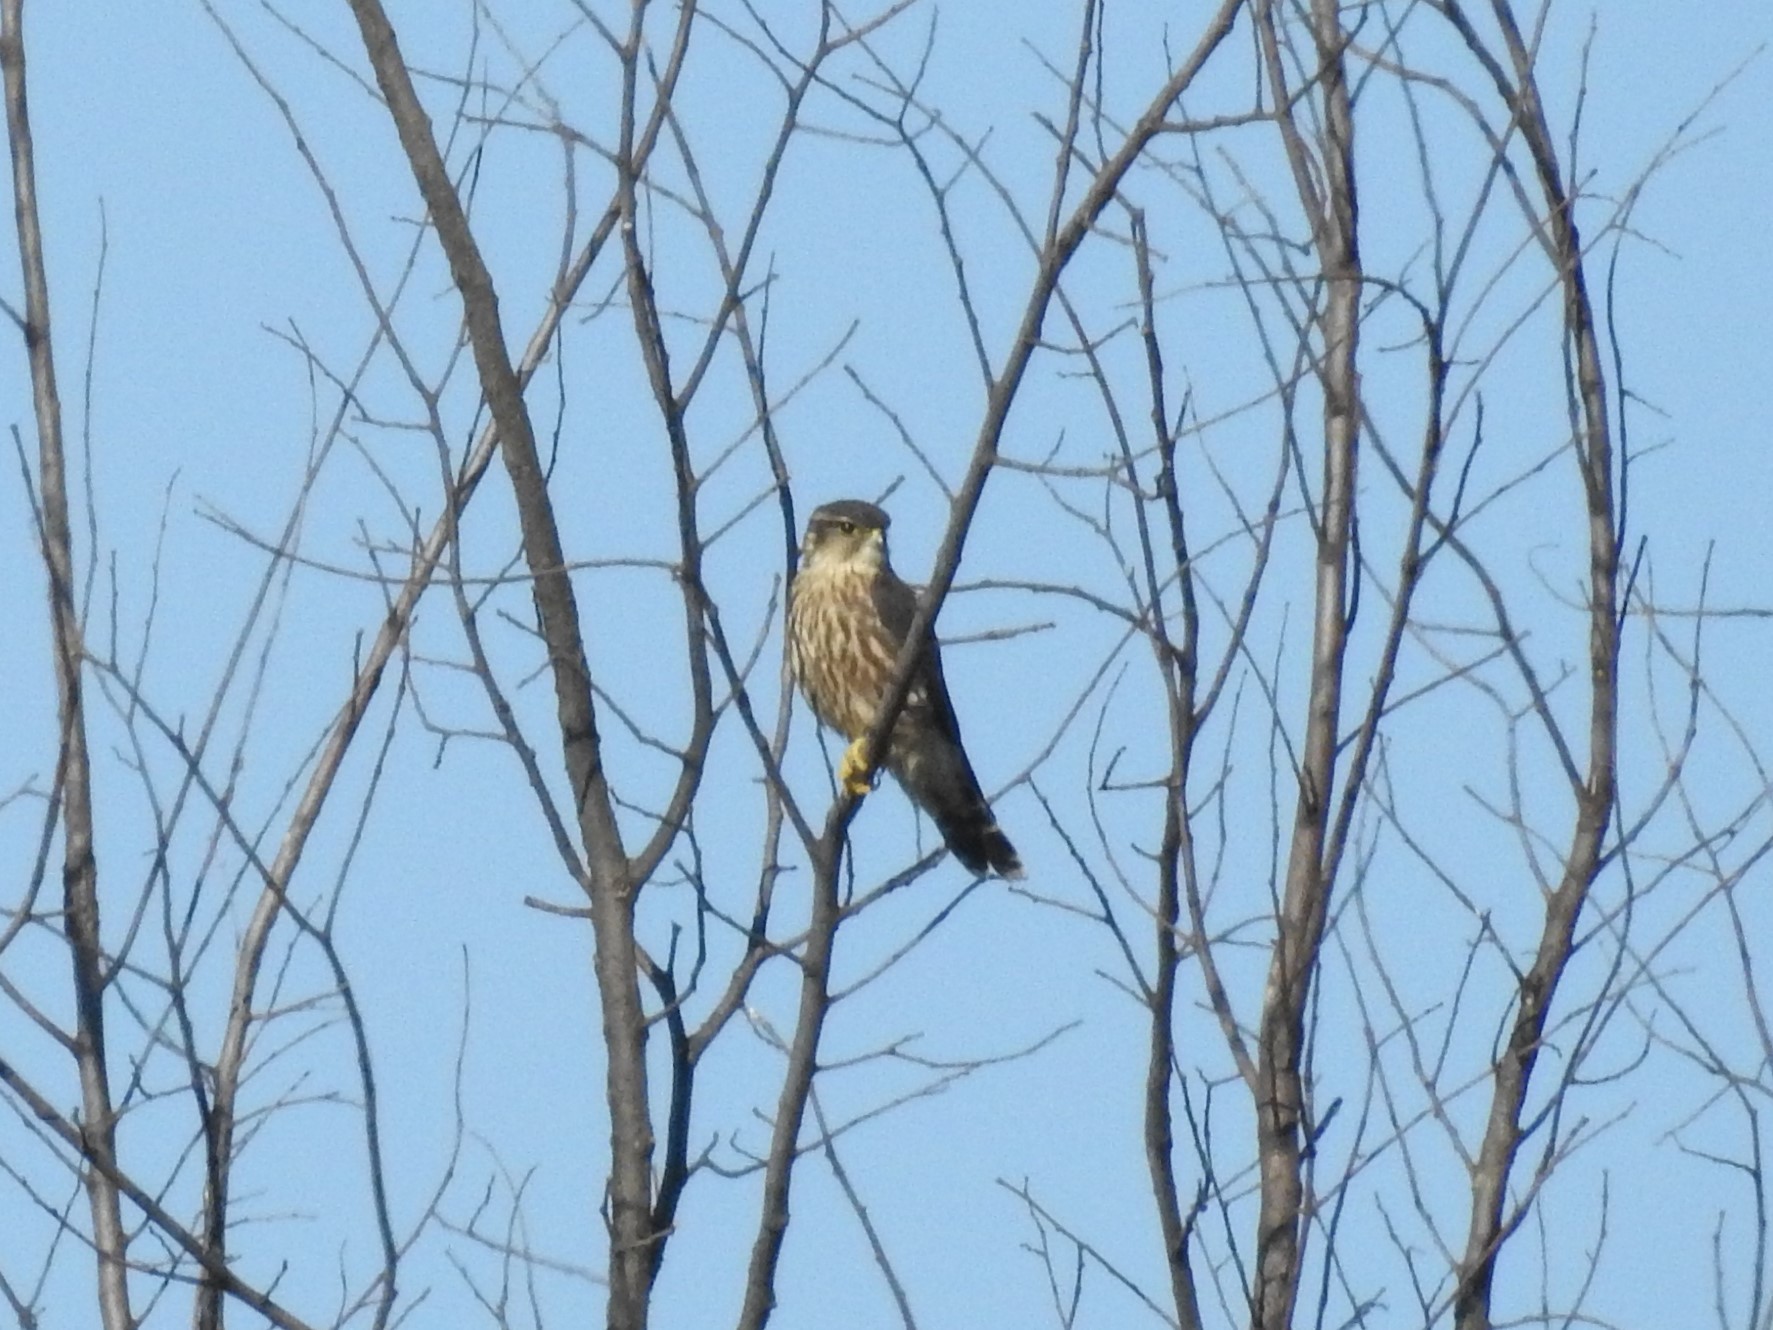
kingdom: Animalia
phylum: Chordata
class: Aves
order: Falconiformes
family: Falconidae
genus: Falco
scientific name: Falco columbarius
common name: Merlin
